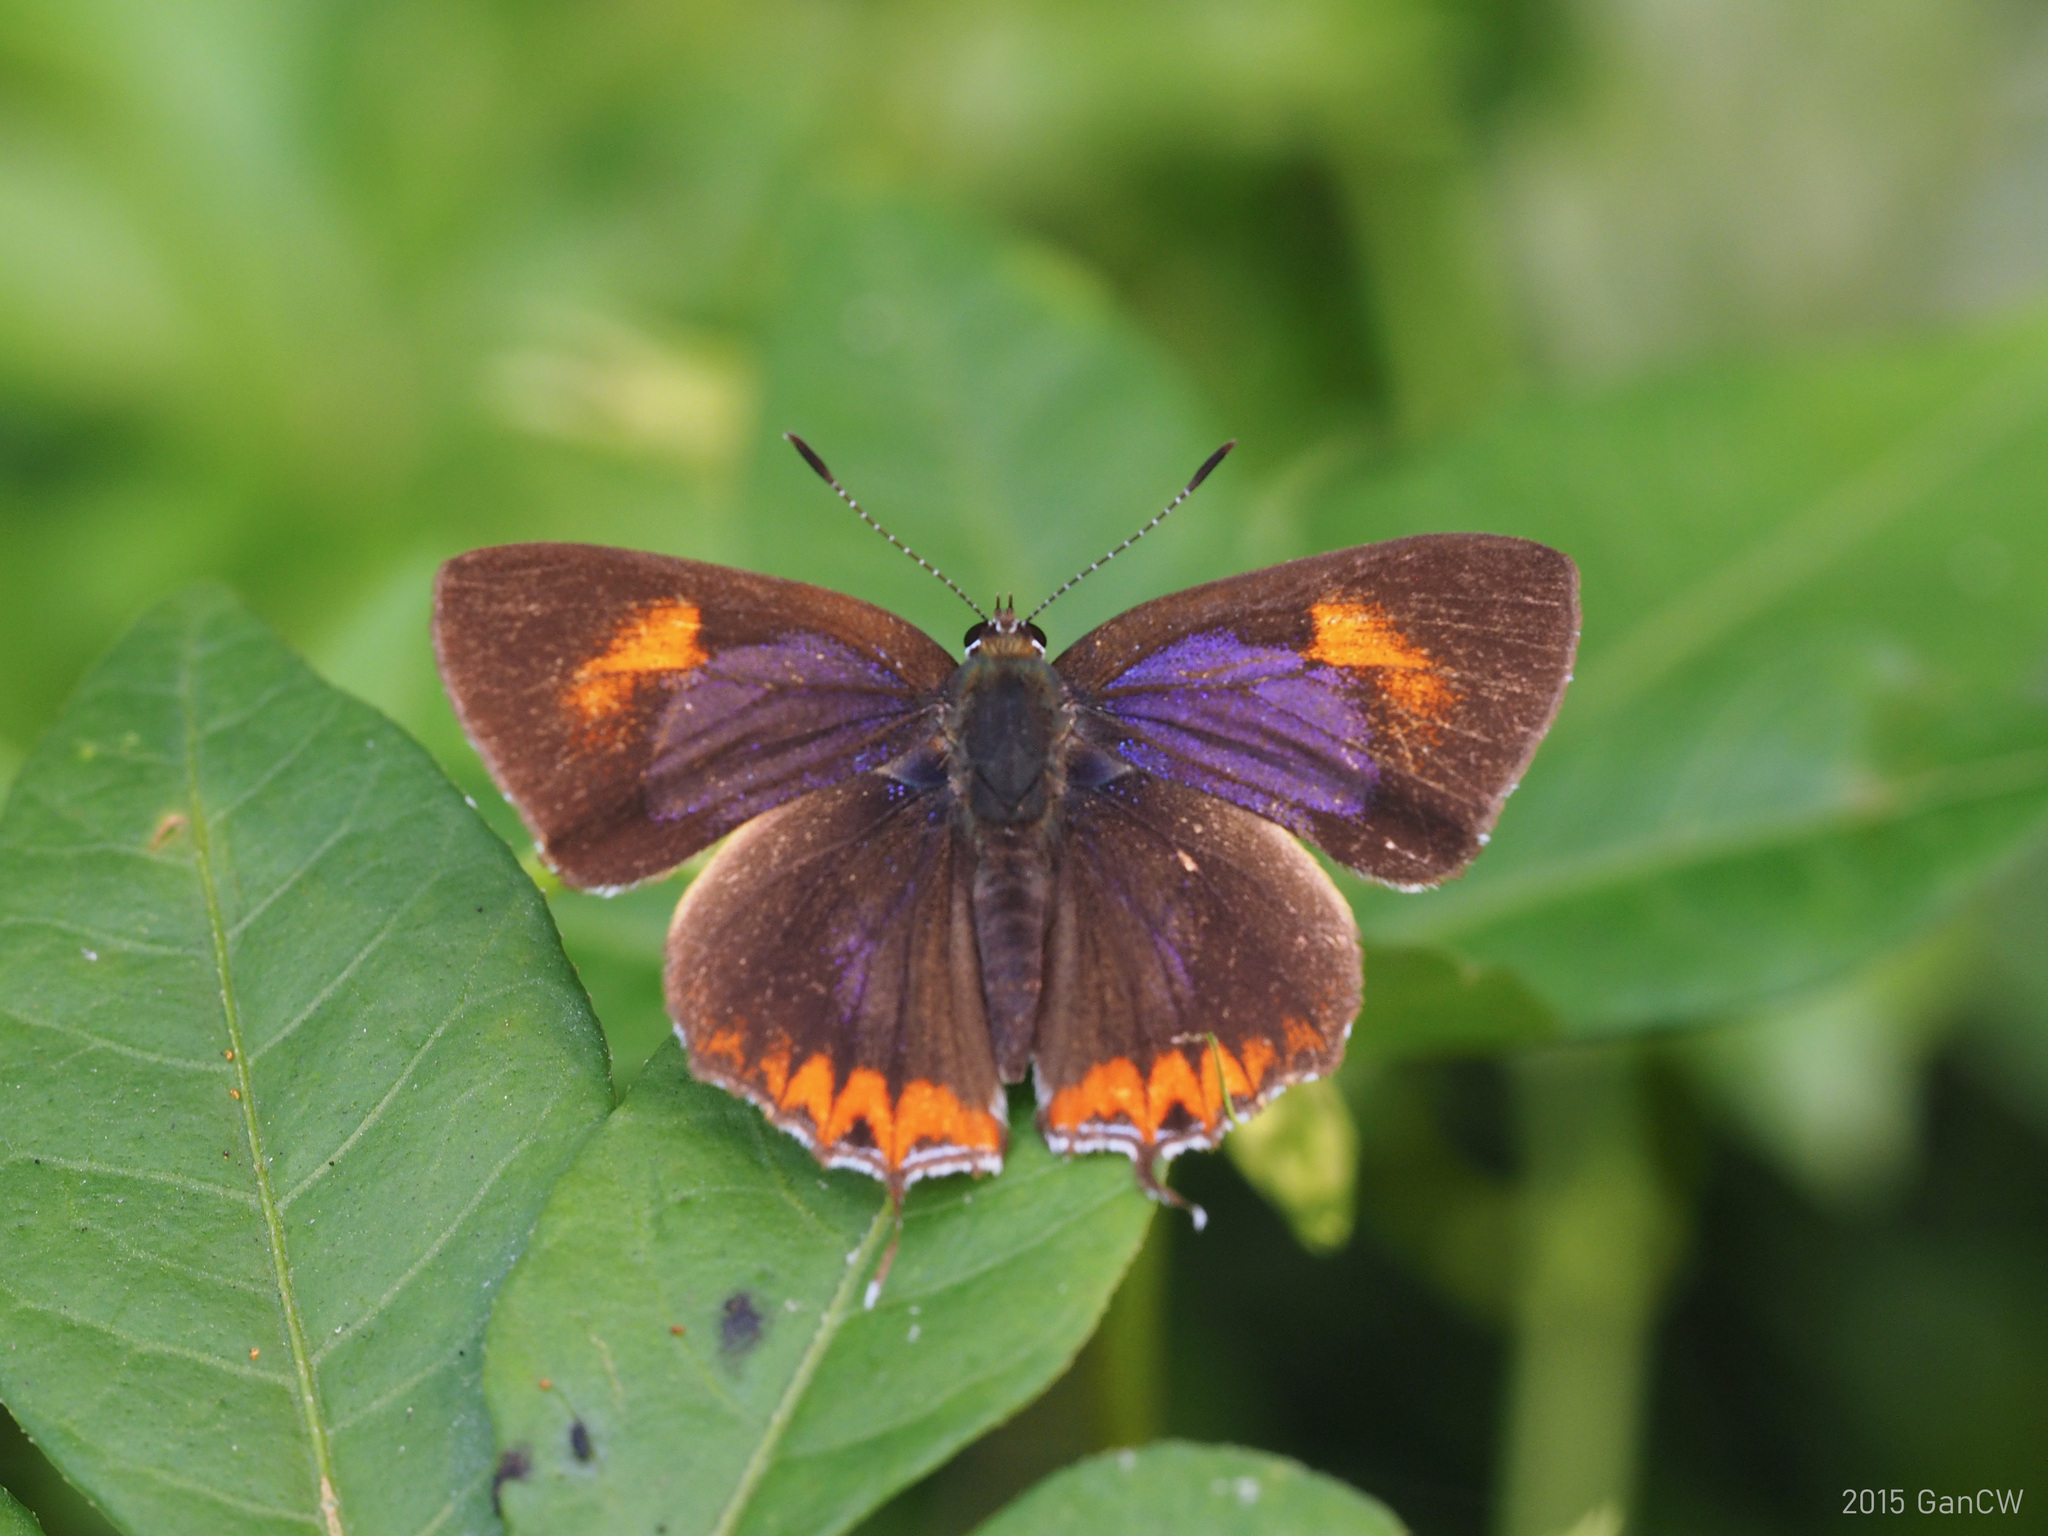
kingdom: Animalia
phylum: Arthropoda
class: Insecta
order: Lepidoptera
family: Lycaenidae
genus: Heliophorus
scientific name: Heliophorus epicles
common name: Purple sapphire
